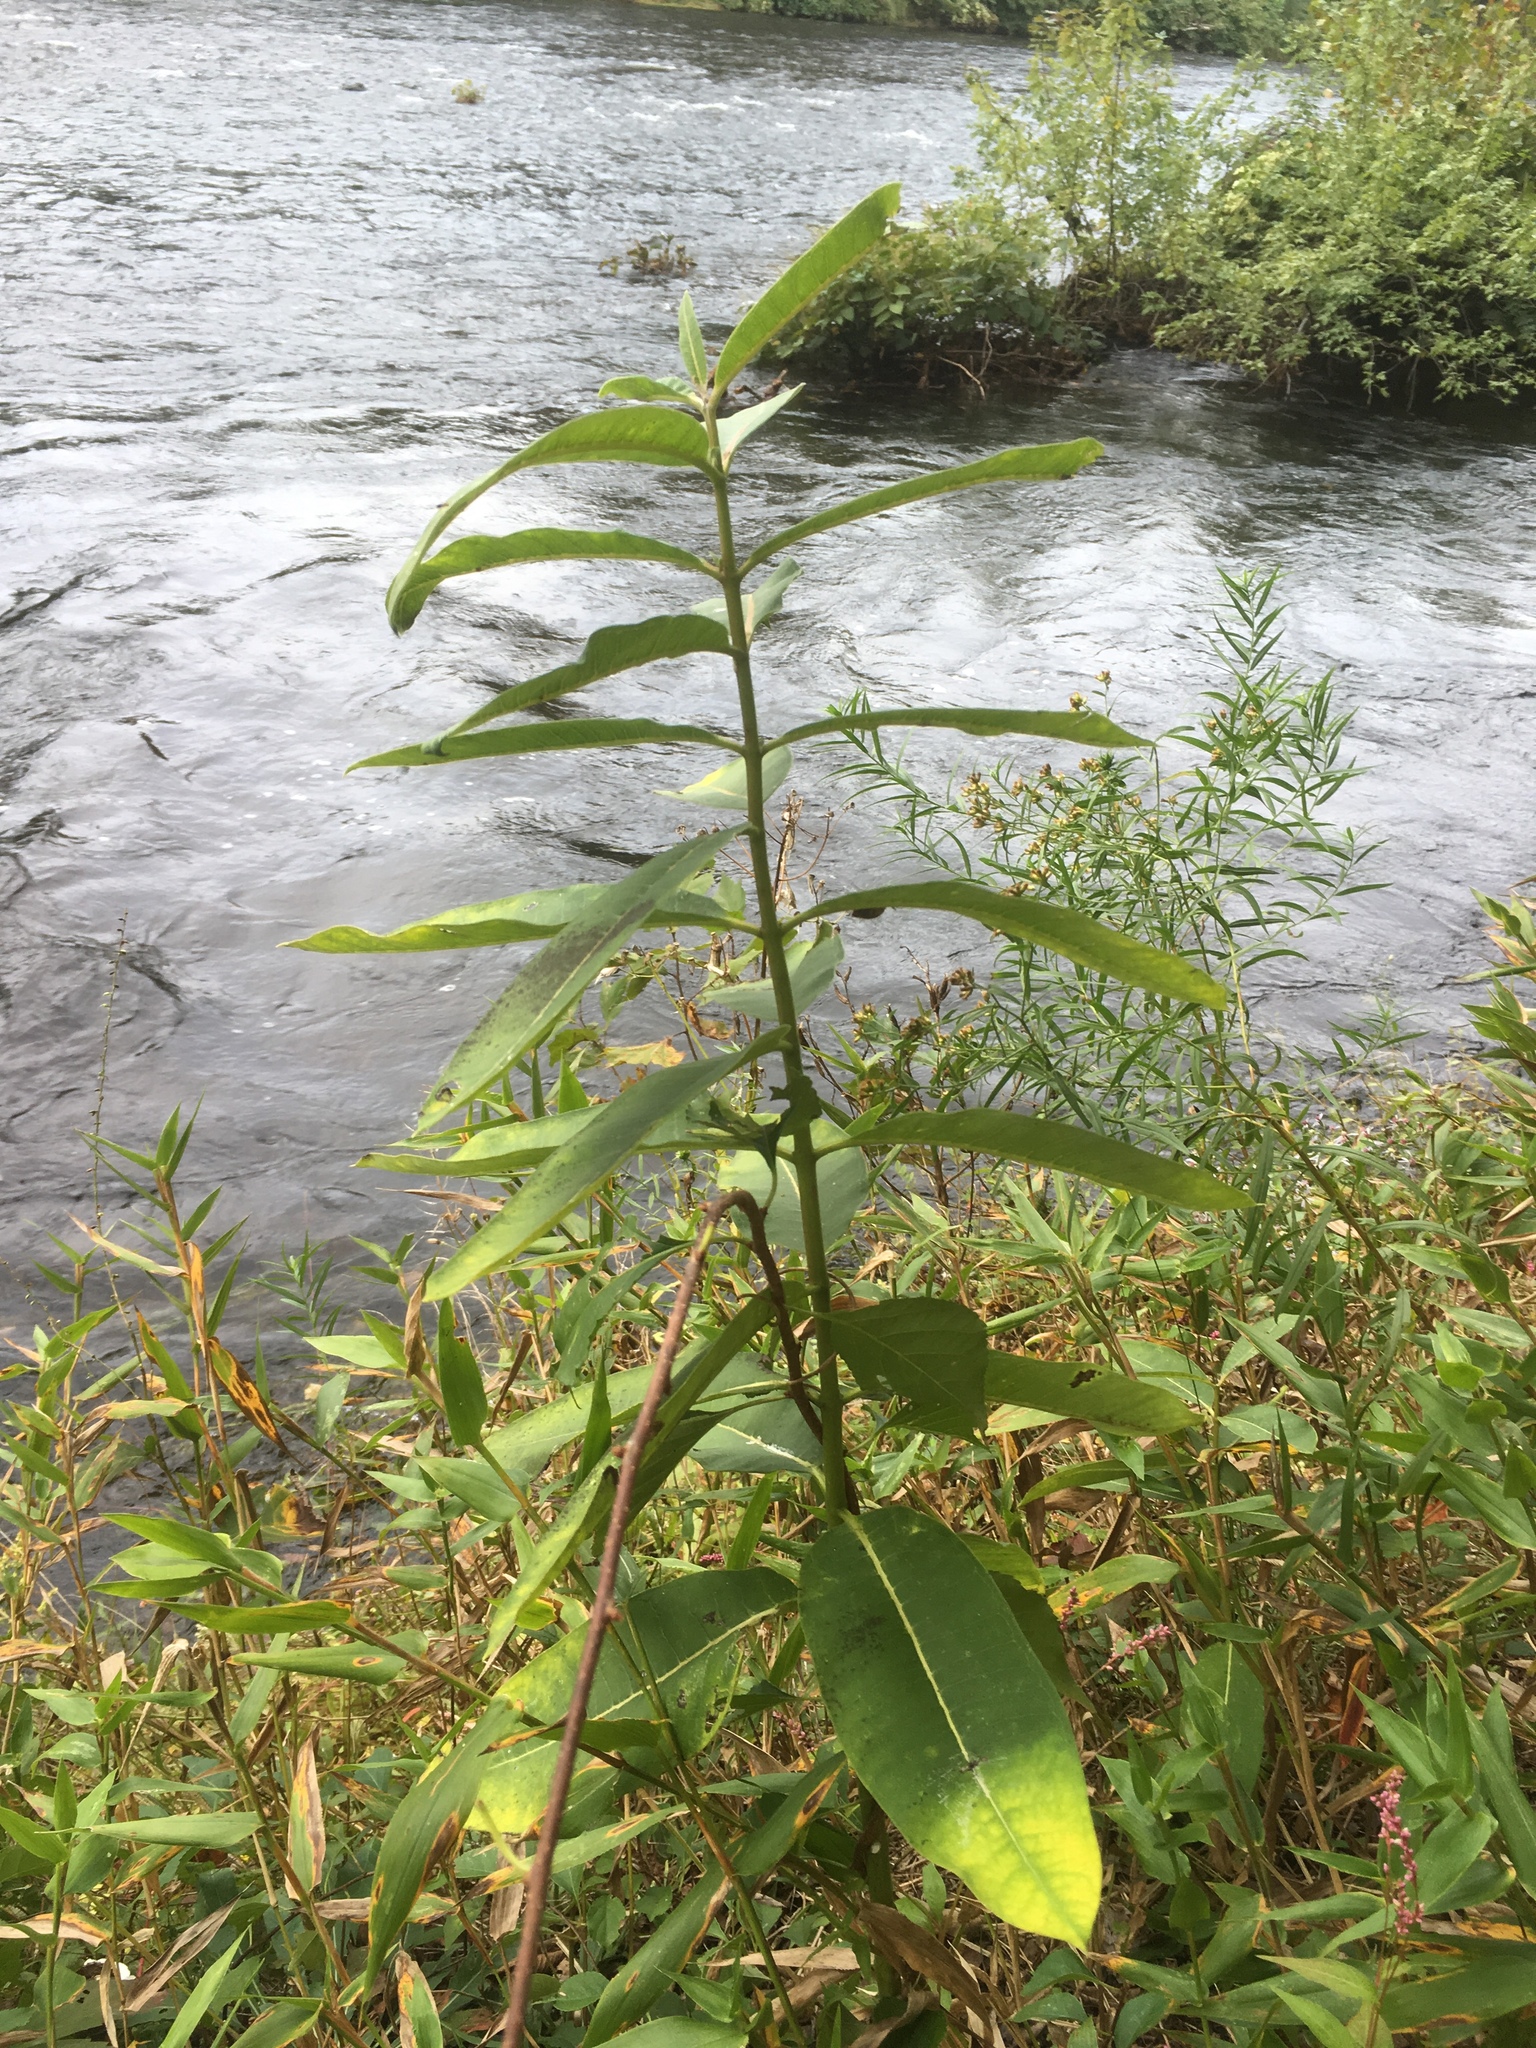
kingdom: Plantae
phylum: Tracheophyta
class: Magnoliopsida
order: Gentianales
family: Apocynaceae
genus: Asclepias
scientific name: Asclepias syriaca
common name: Common milkweed
